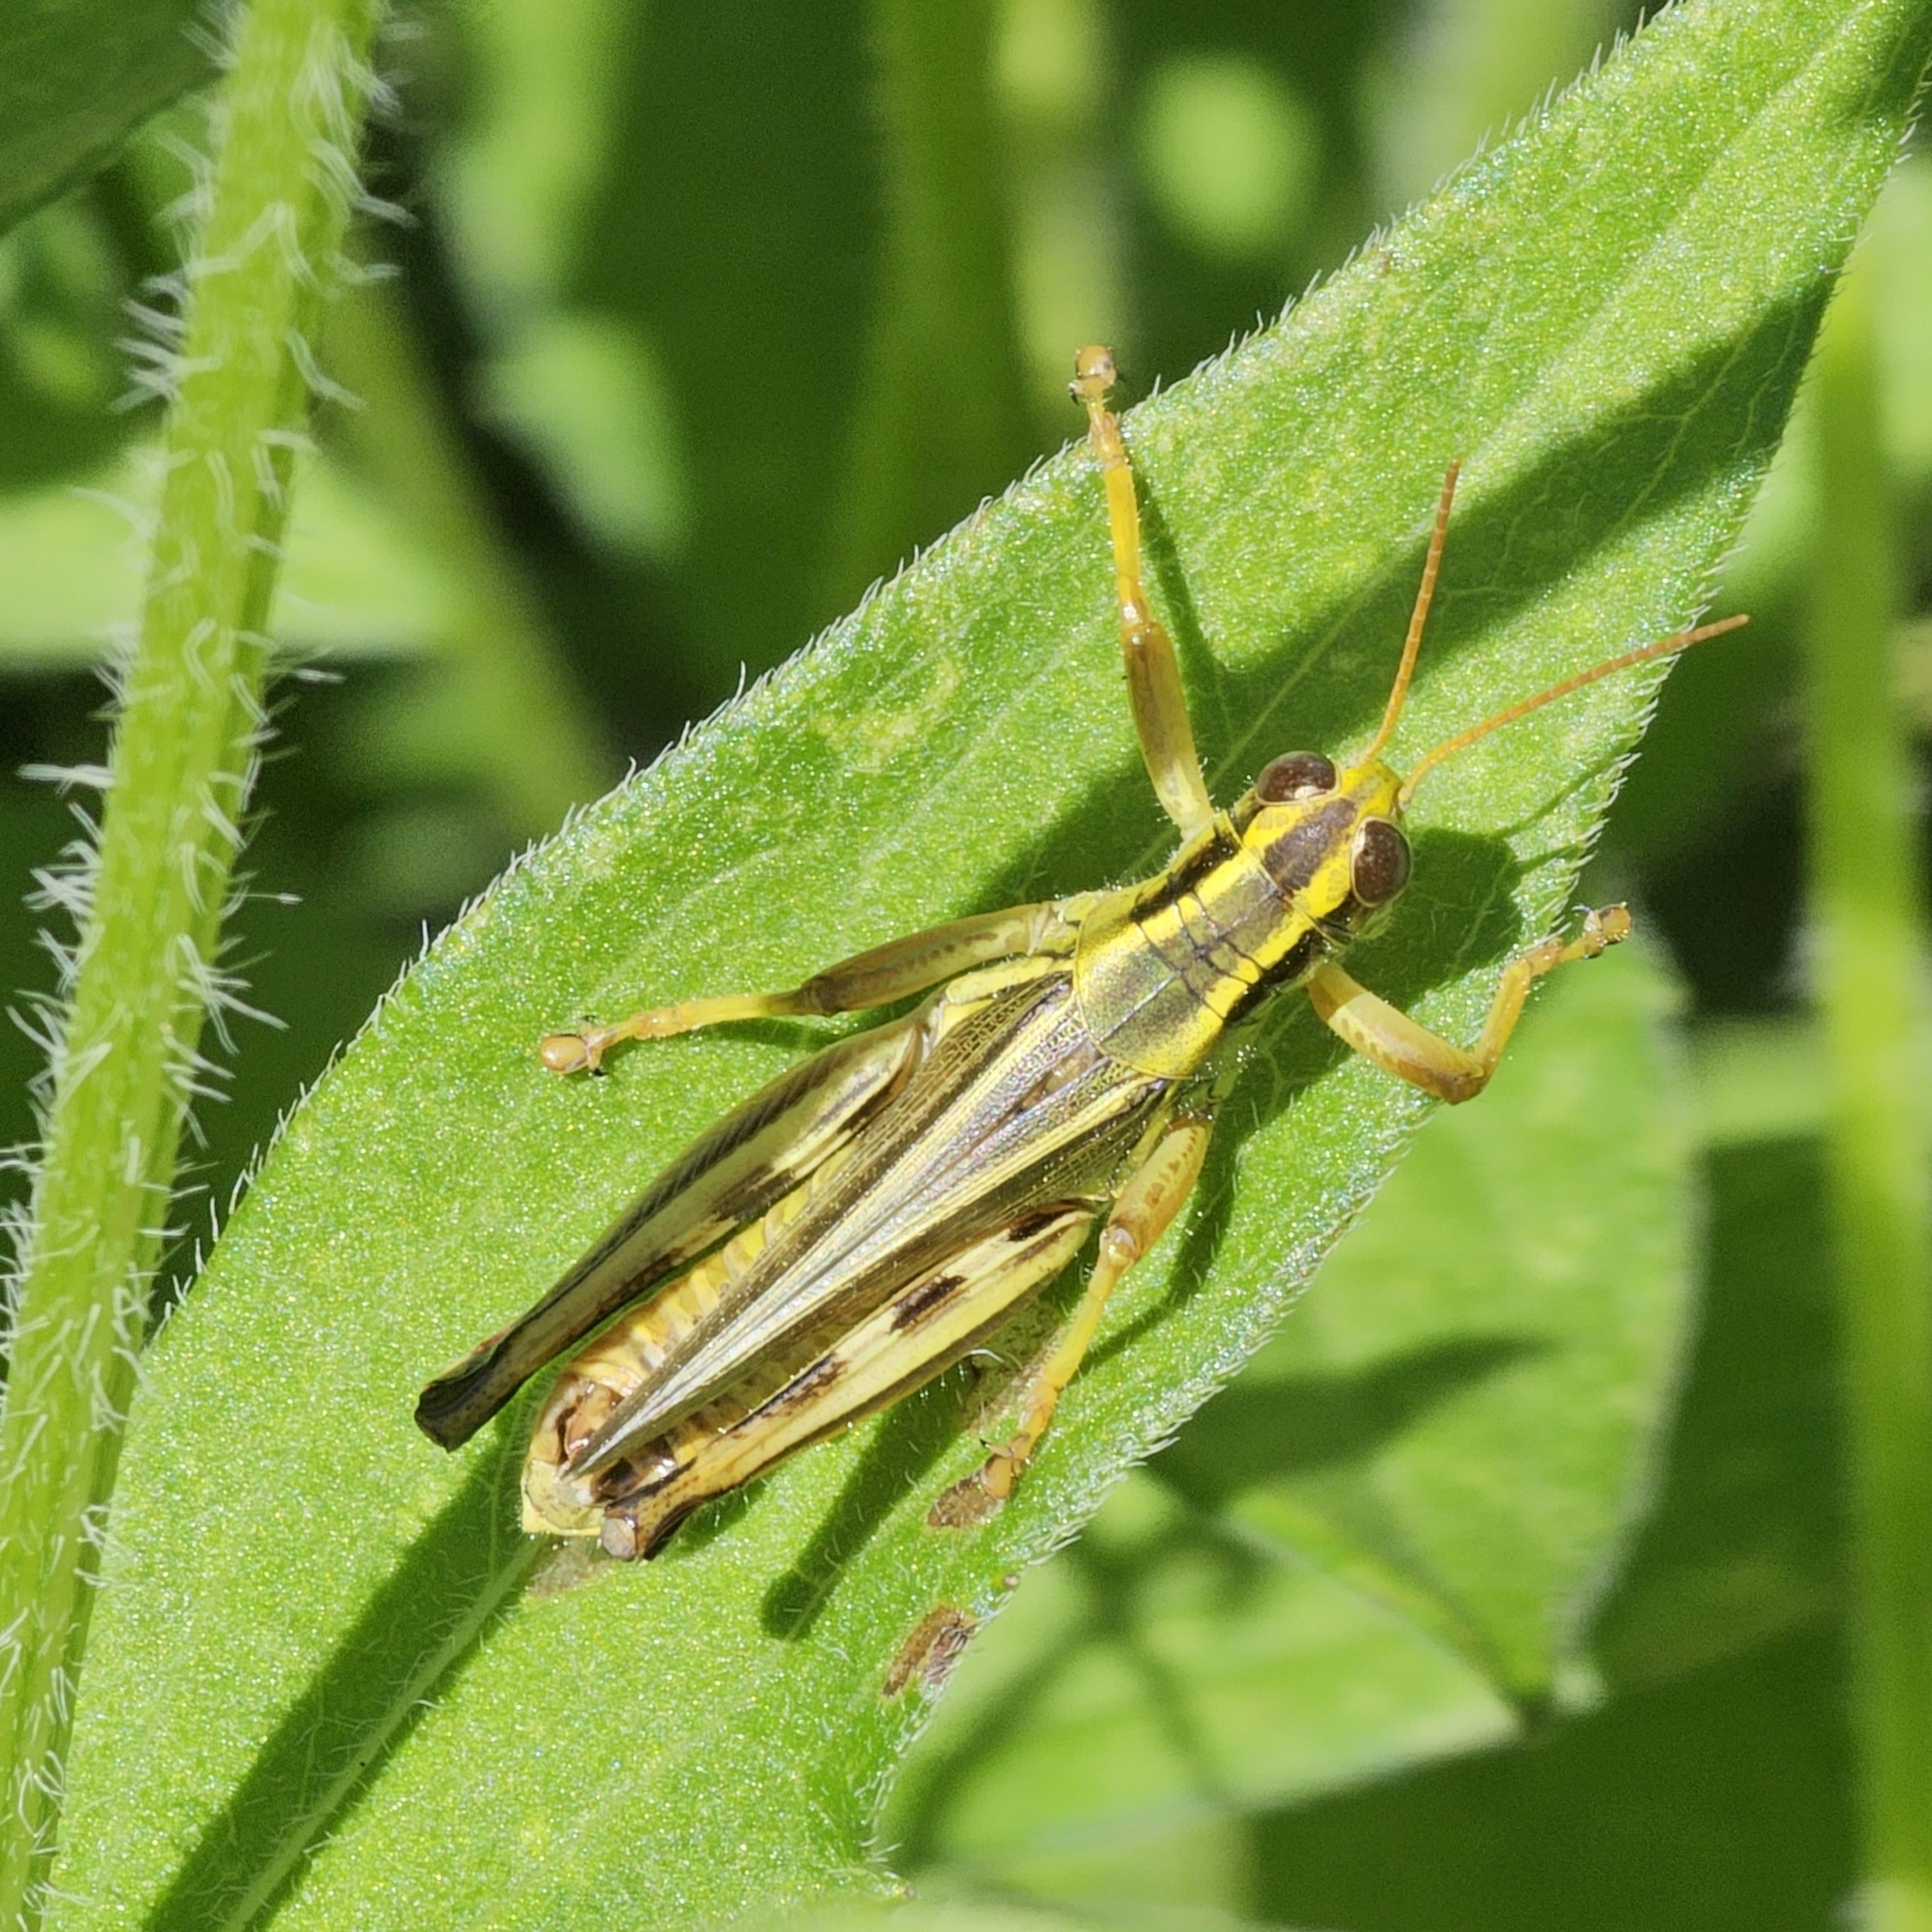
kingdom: Animalia
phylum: Arthropoda
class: Insecta
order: Orthoptera
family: Acrididae
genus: Melanoplus
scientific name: Melanoplus bivittatus
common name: Two-striped grasshopper
